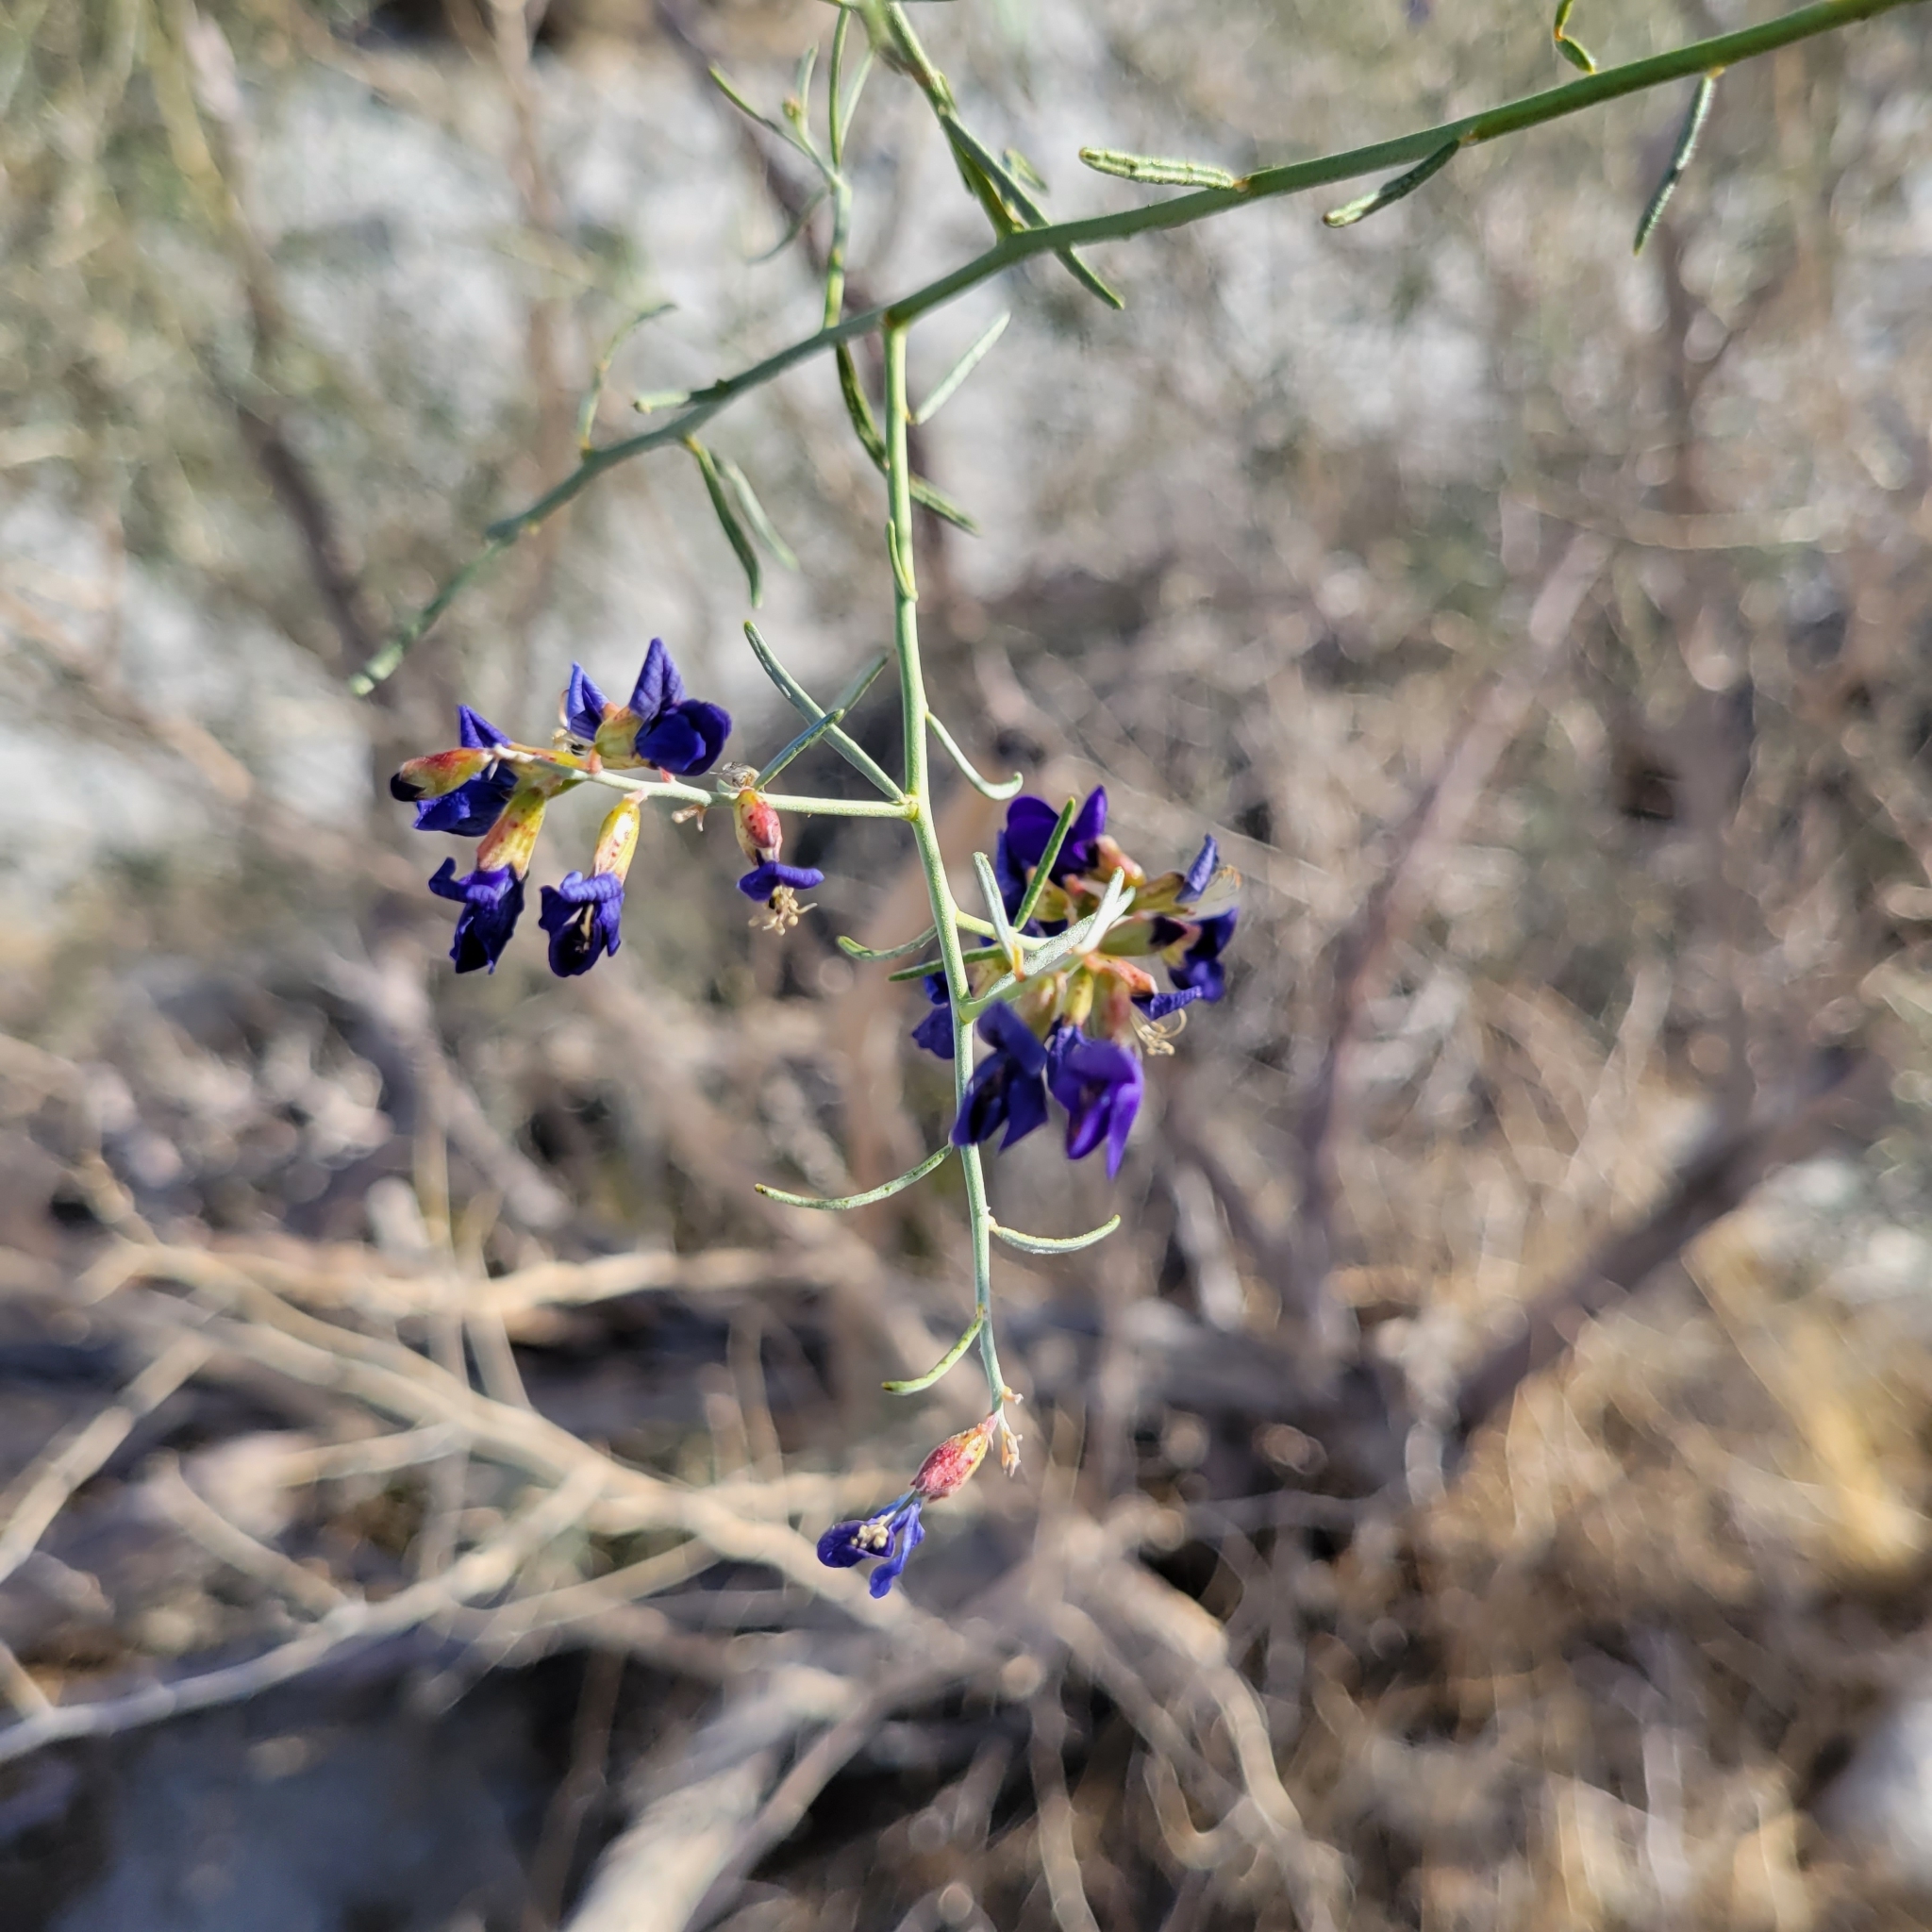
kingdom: Plantae
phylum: Tracheophyta
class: Magnoliopsida
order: Fabales
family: Fabaceae
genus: Psorothamnus
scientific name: Psorothamnus schottii
